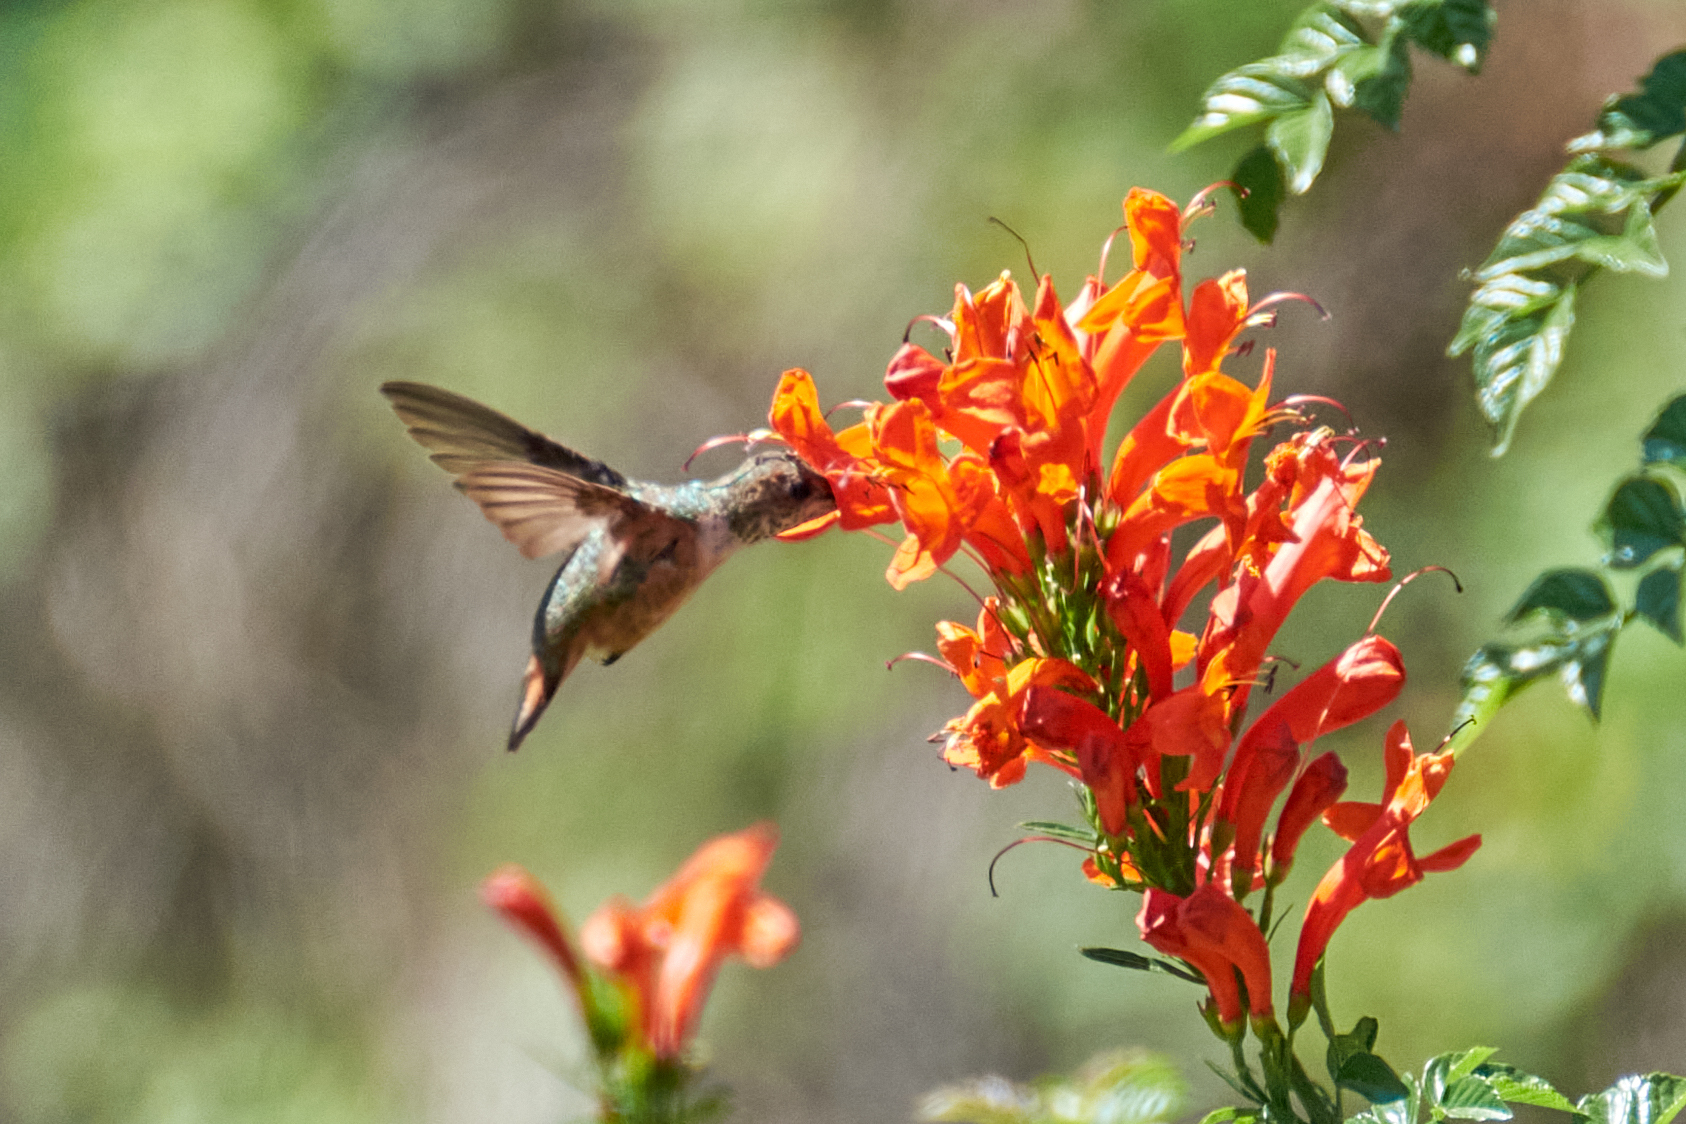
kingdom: Animalia
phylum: Chordata
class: Aves
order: Apodiformes
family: Trochilidae
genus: Selasphorus
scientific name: Selasphorus sasin
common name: Allen's hummingbird
